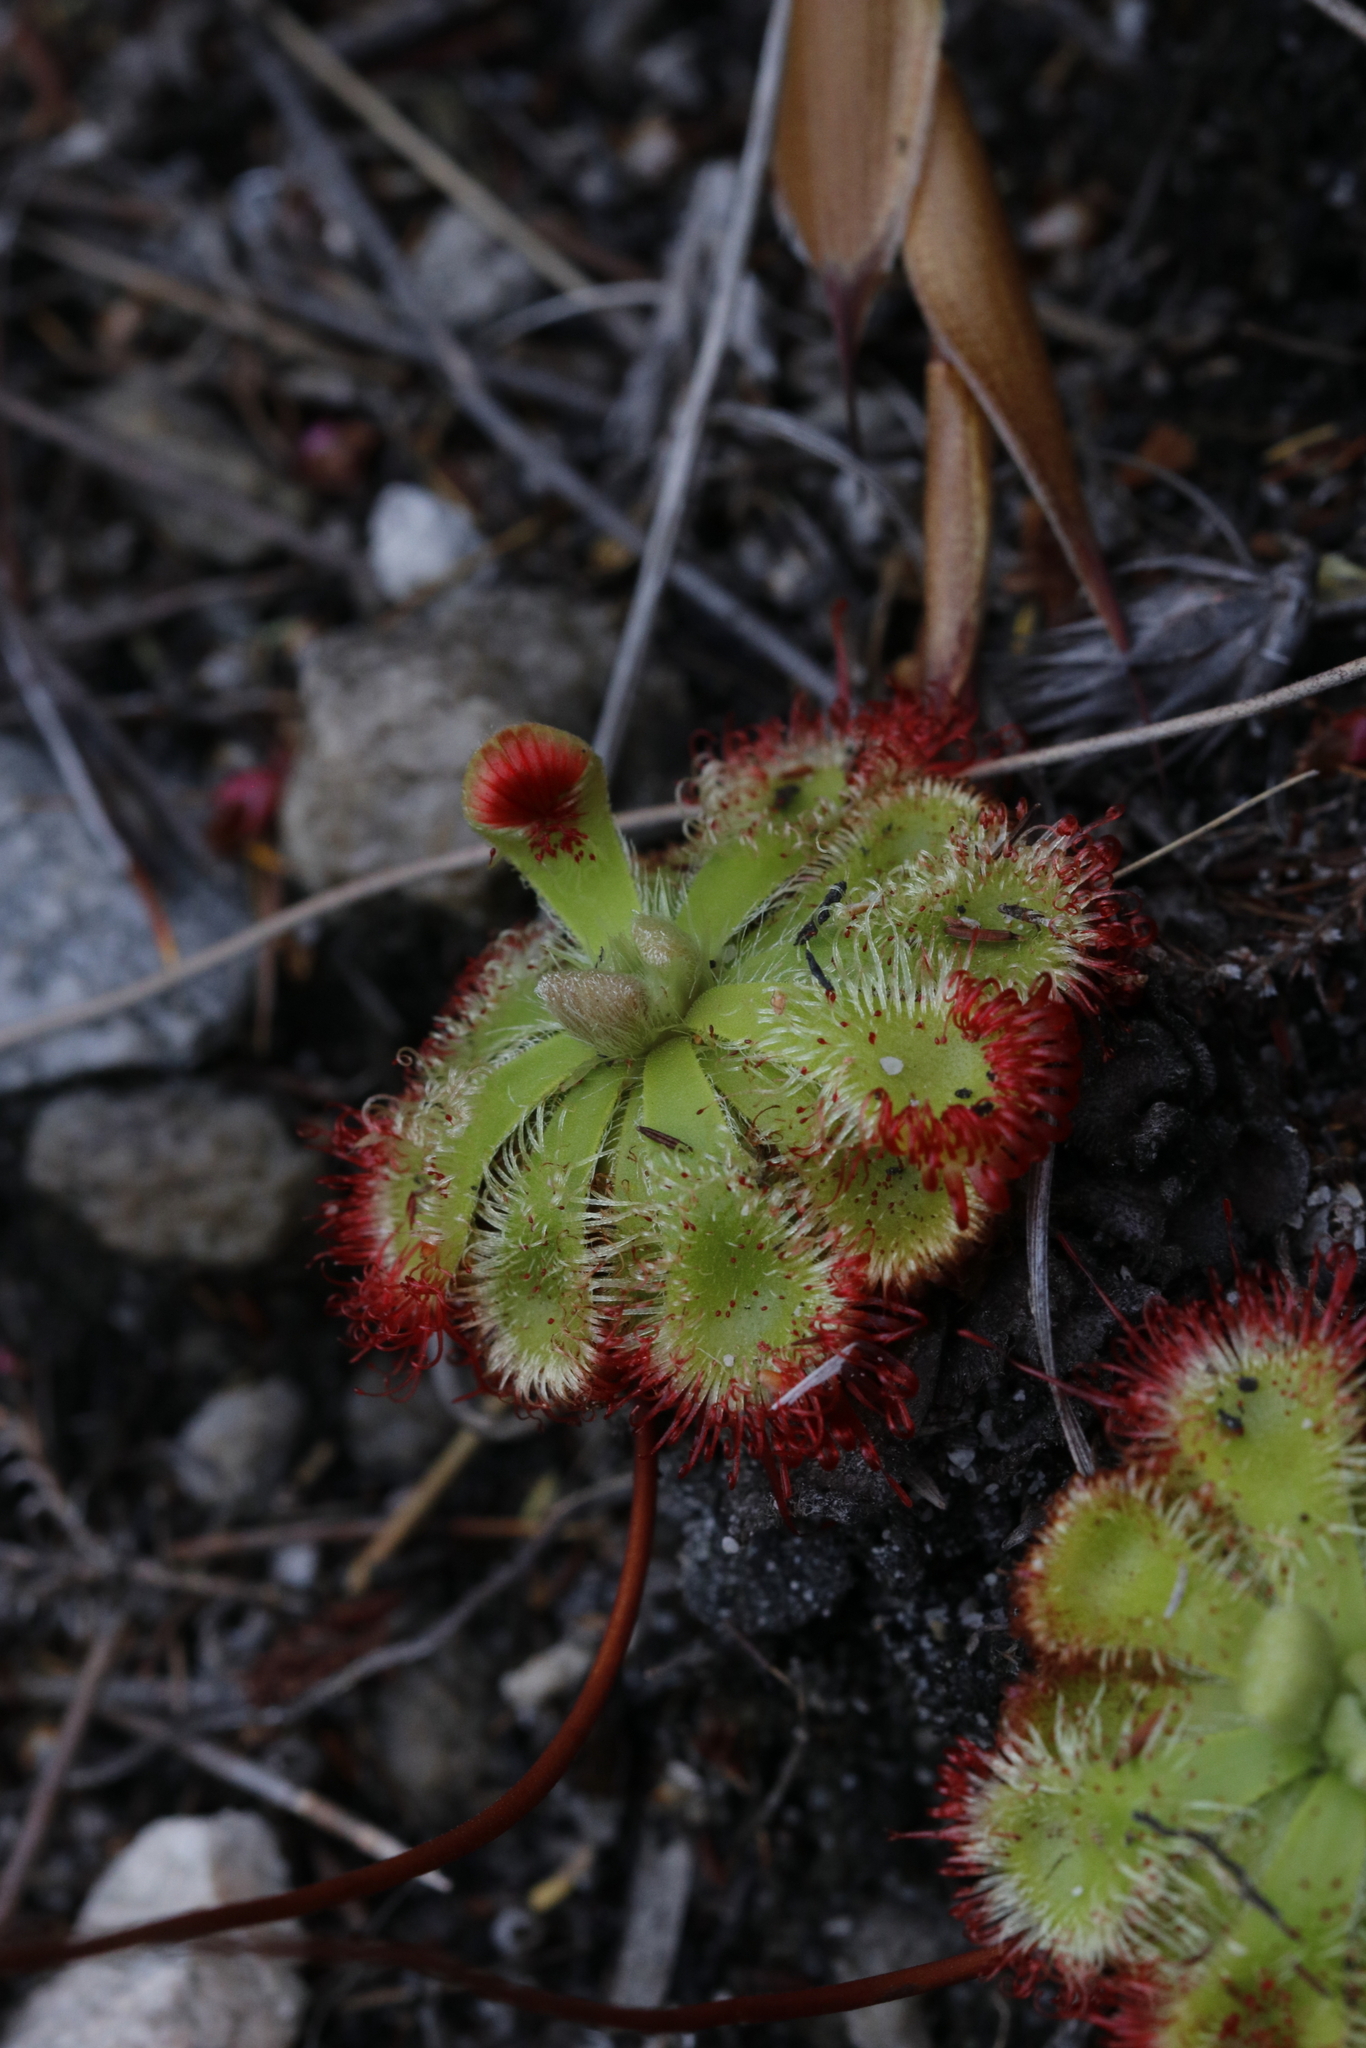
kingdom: Plantae
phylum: Tracheophyta
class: Magnoliopsida
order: Caryophyllales
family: Droseraceae
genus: Drosera
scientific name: Drosera xerophila
